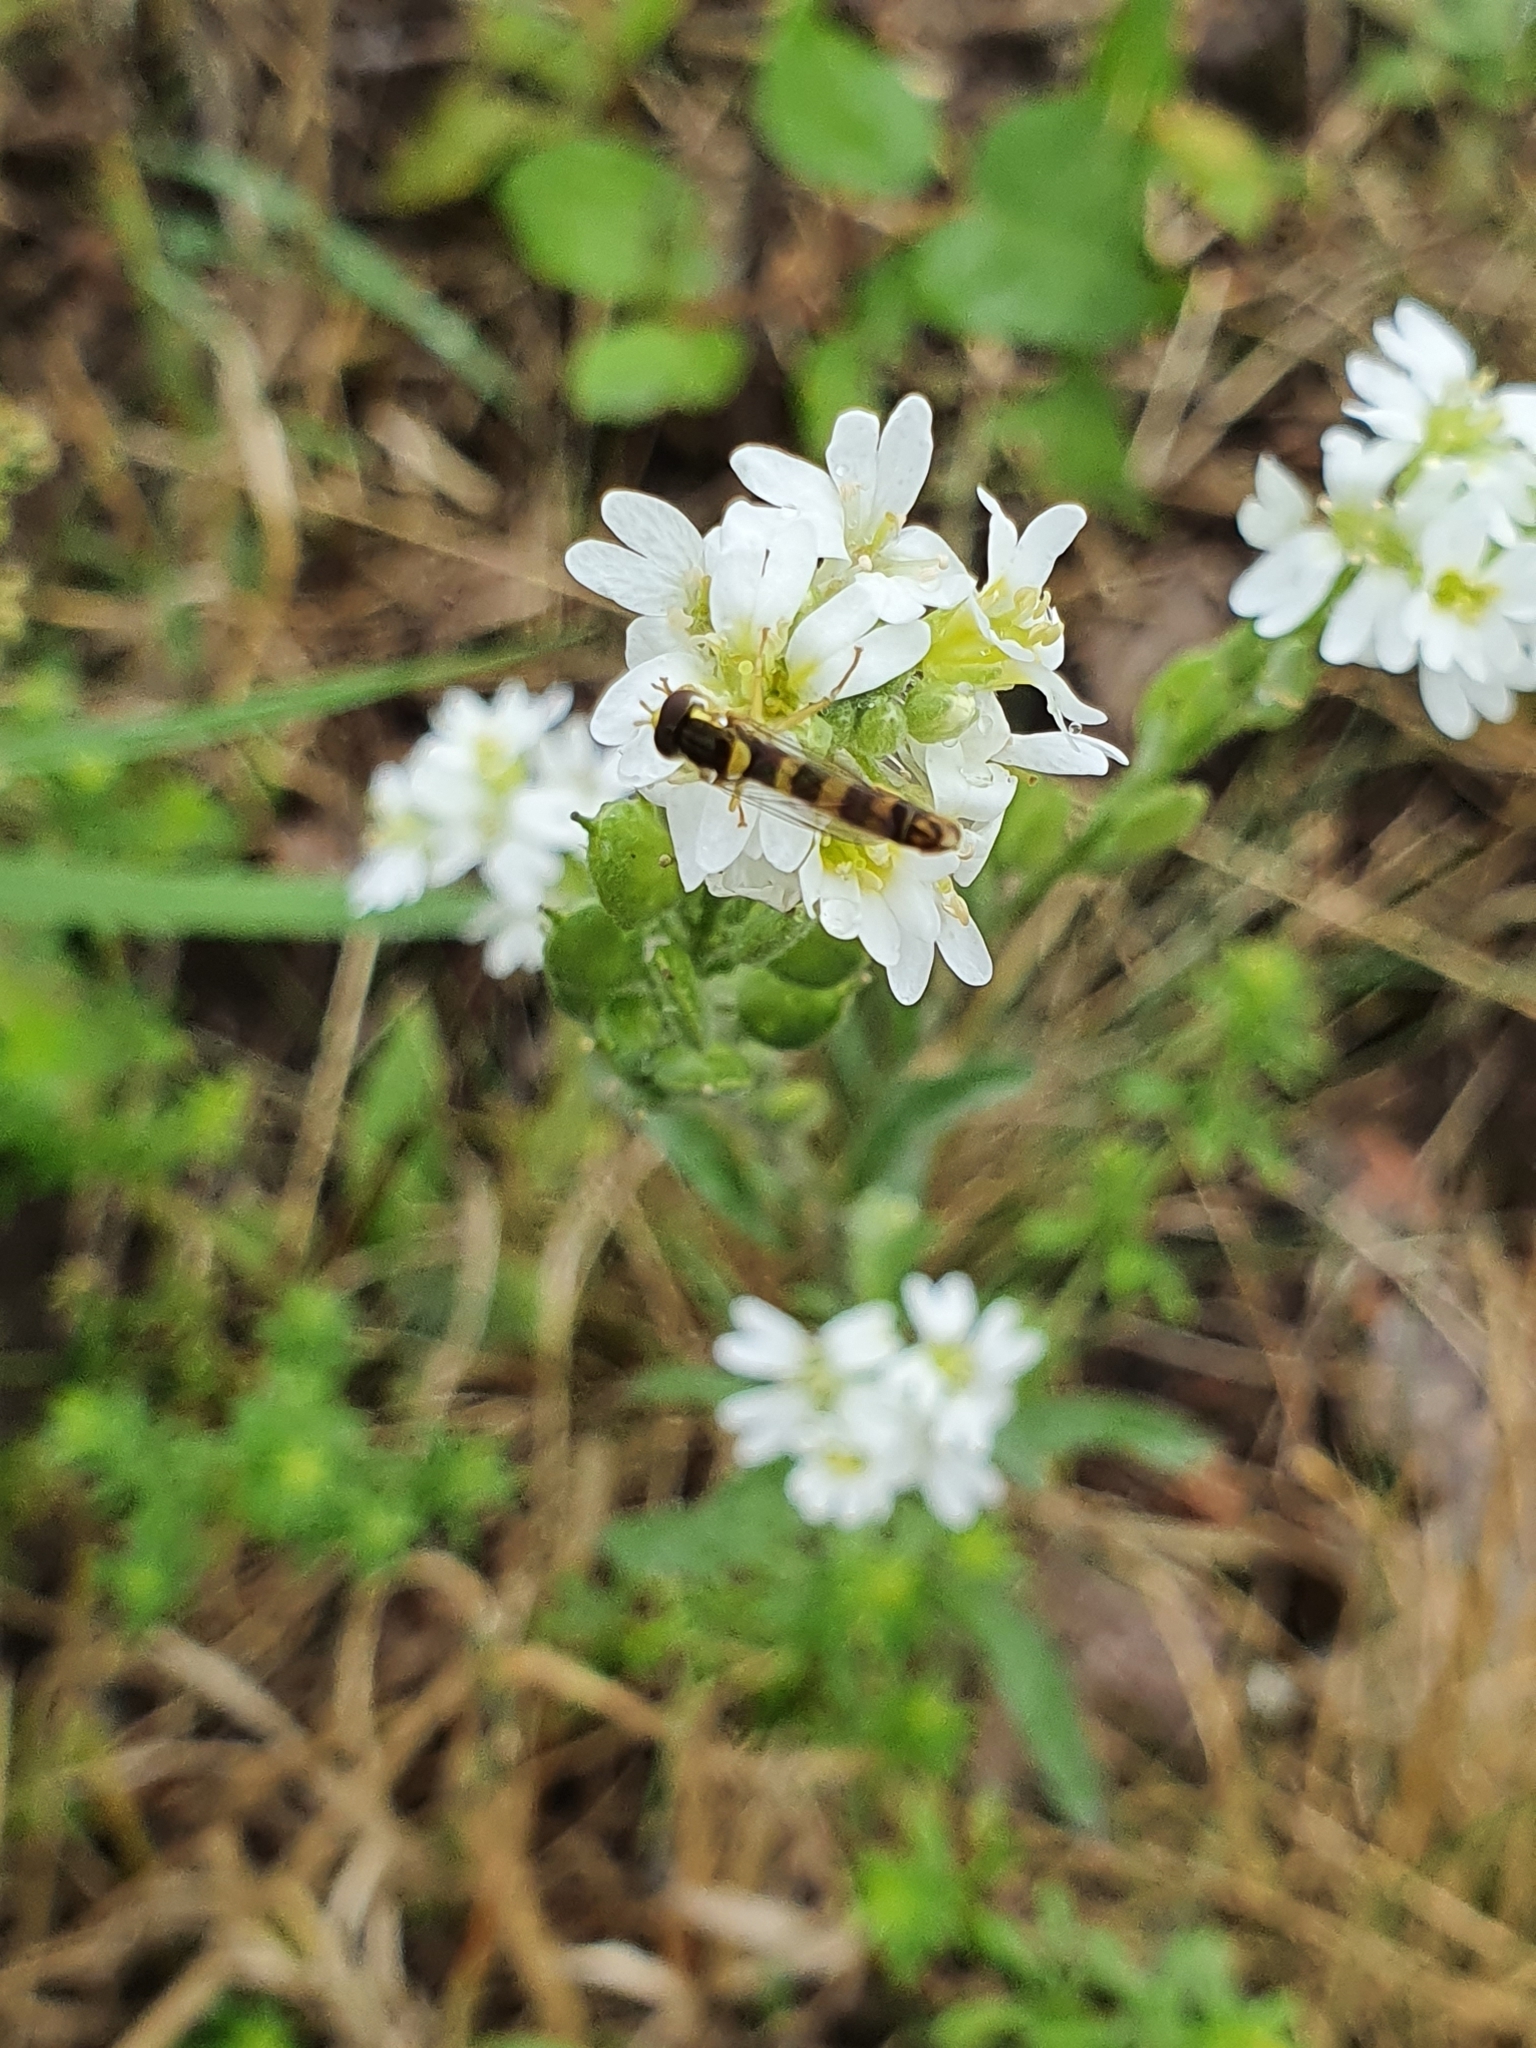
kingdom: Animalia
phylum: Arthropoda
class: Insecta
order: Diptera
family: Syrphidae
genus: Sphaerophoria
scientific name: Sphaerophoria scripta
